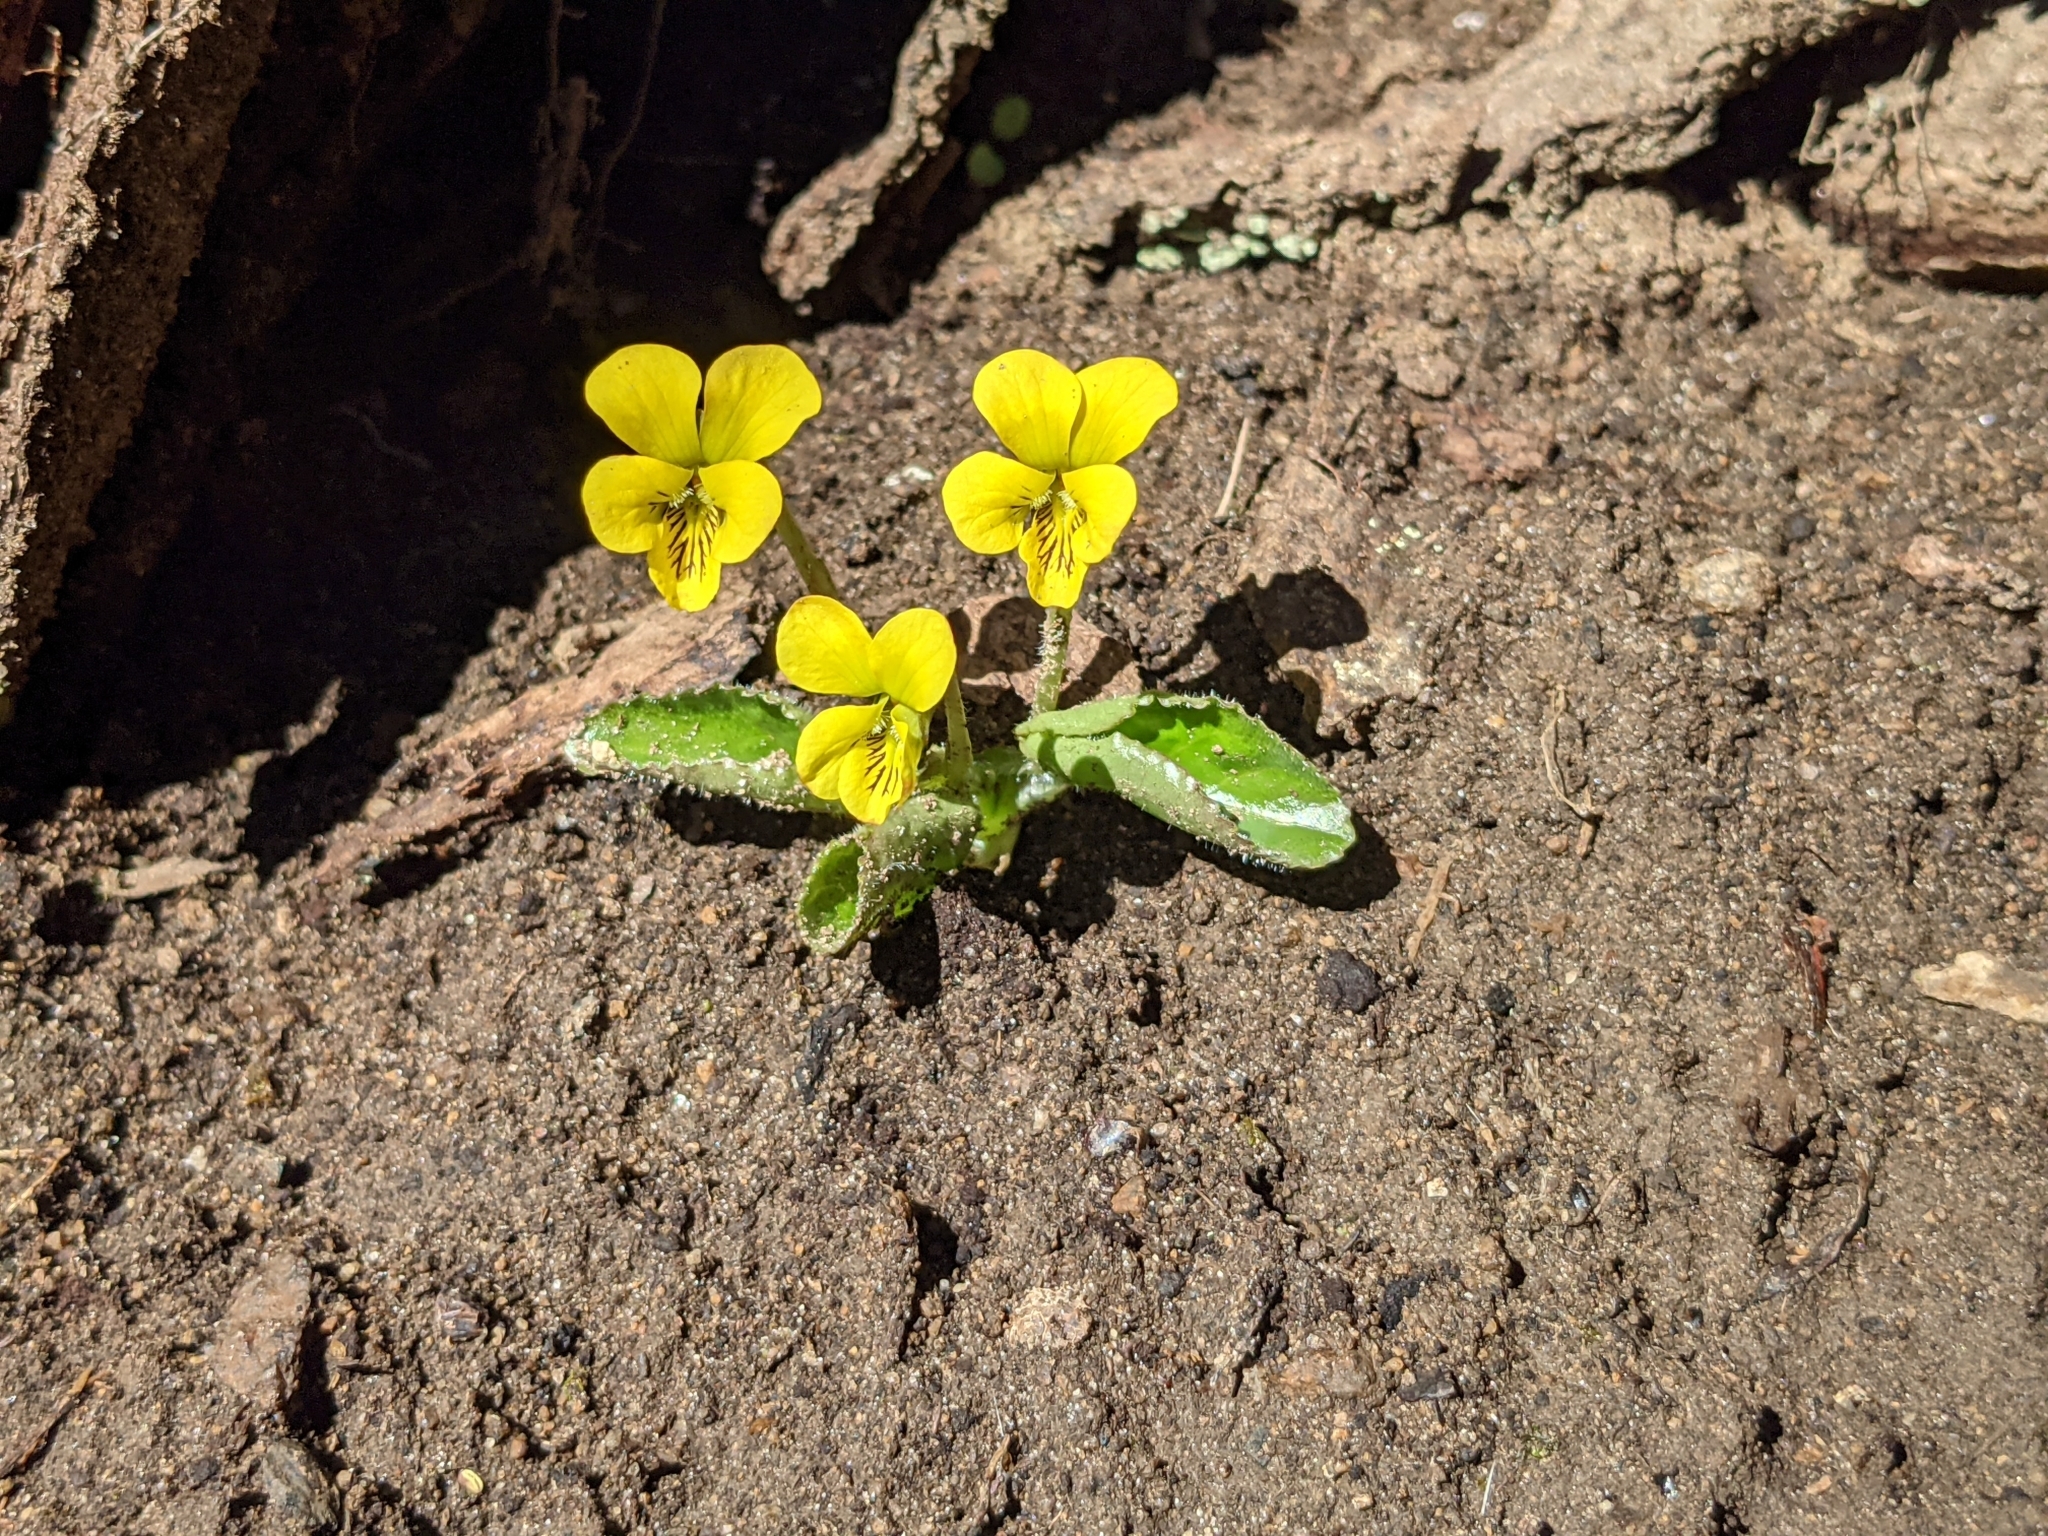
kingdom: Plantae
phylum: Tracheophyta
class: Magnoliopsida
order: Malpighiales
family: Violaceae
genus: Viola
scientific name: Viola rotundifolia
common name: Early yellow violet
